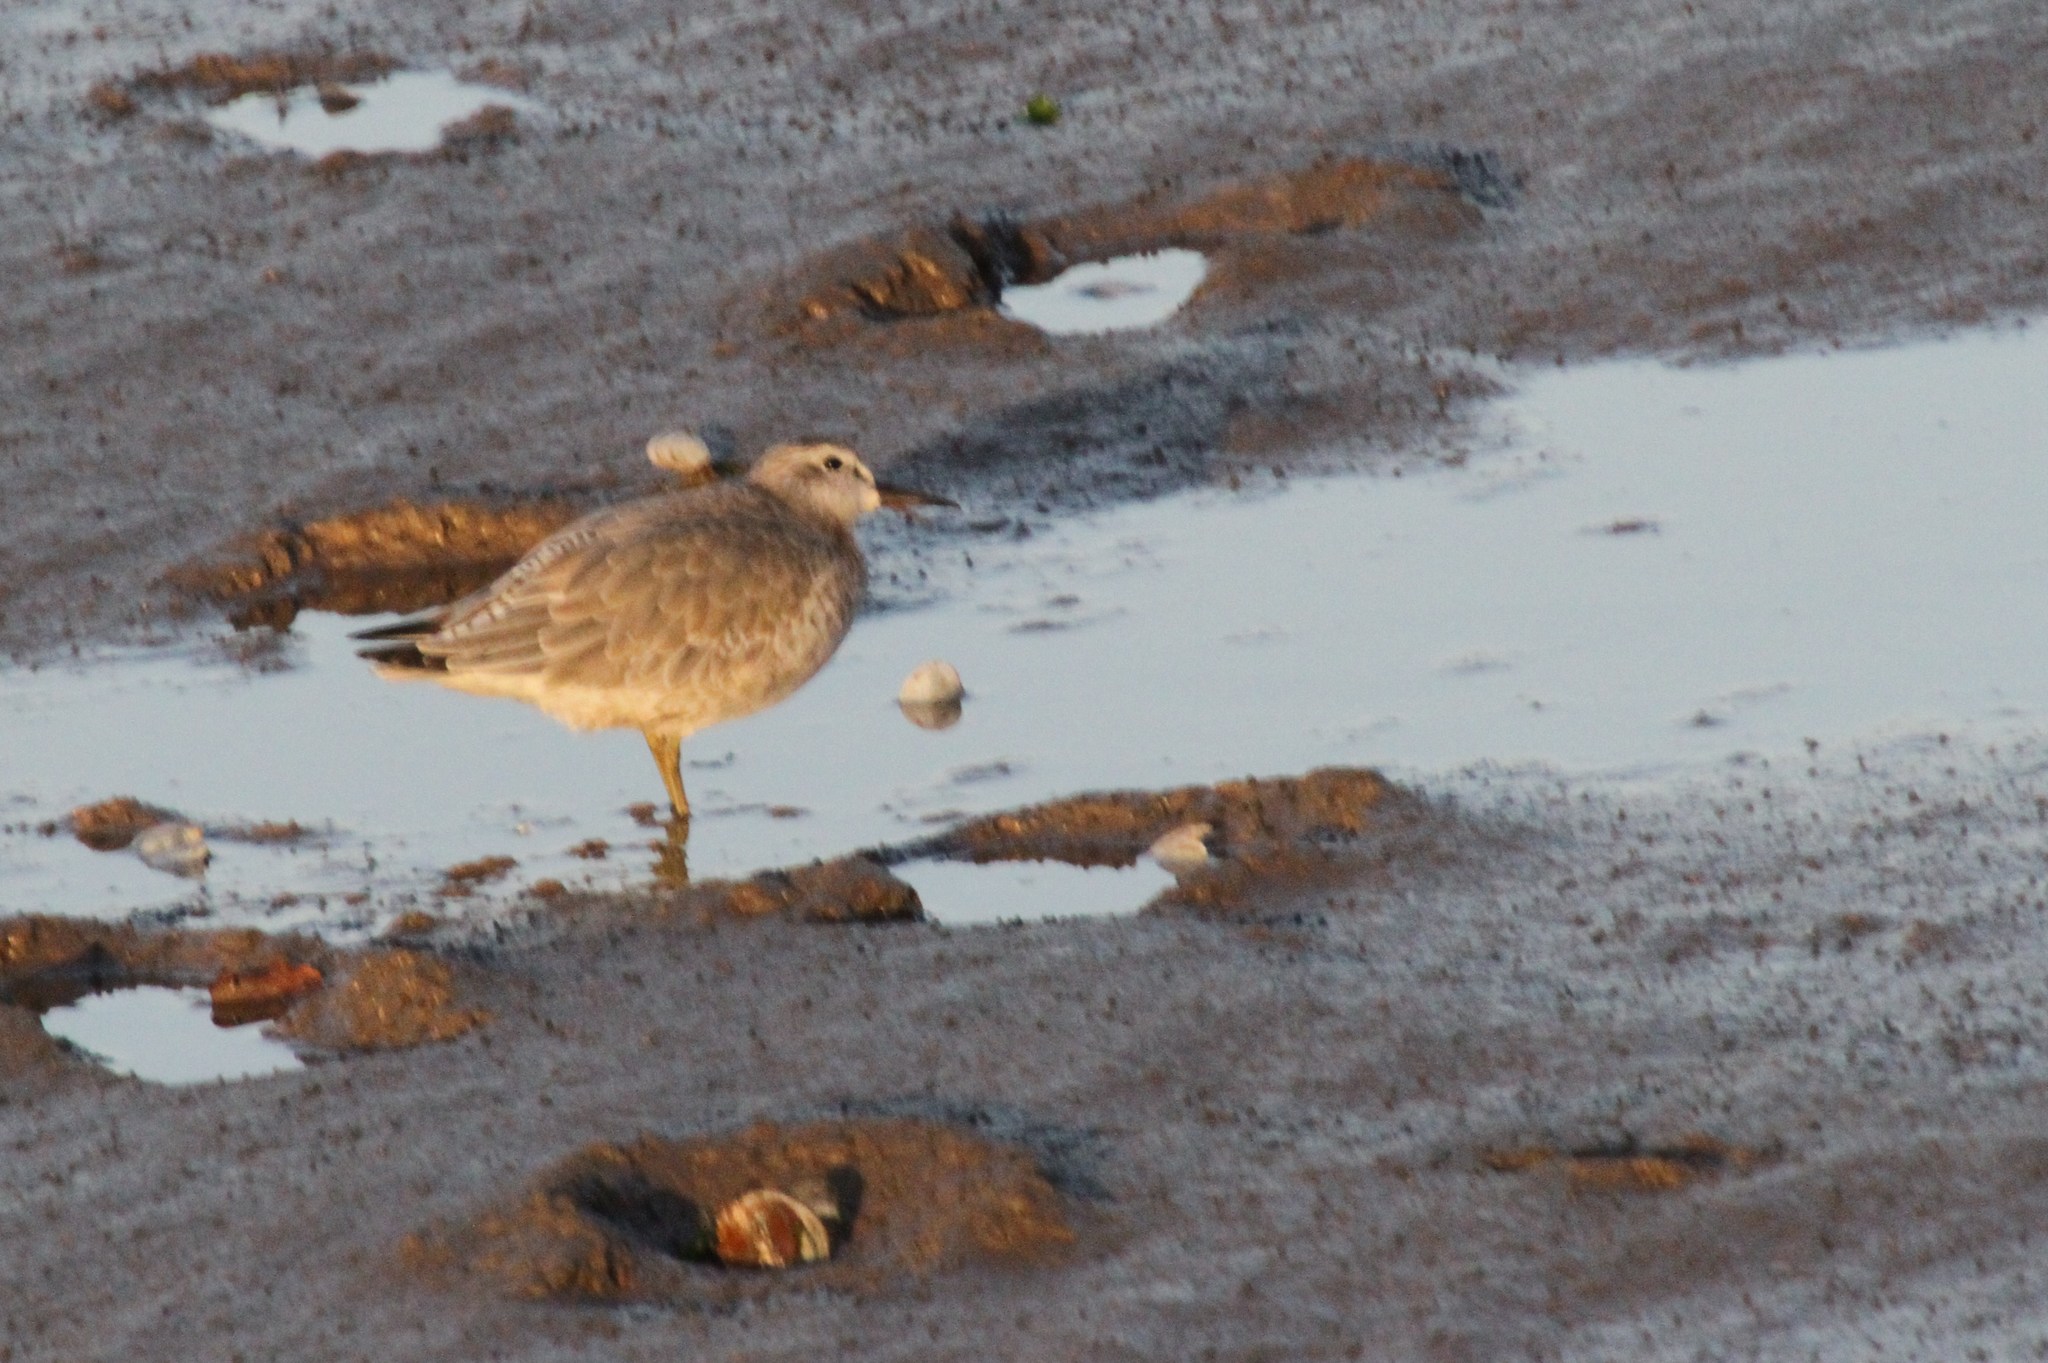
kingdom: Animalia
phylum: Chordata
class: Aves
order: Charadriiformes
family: Scolopacidae
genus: Calidris
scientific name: Calidris canutus
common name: Red knot
